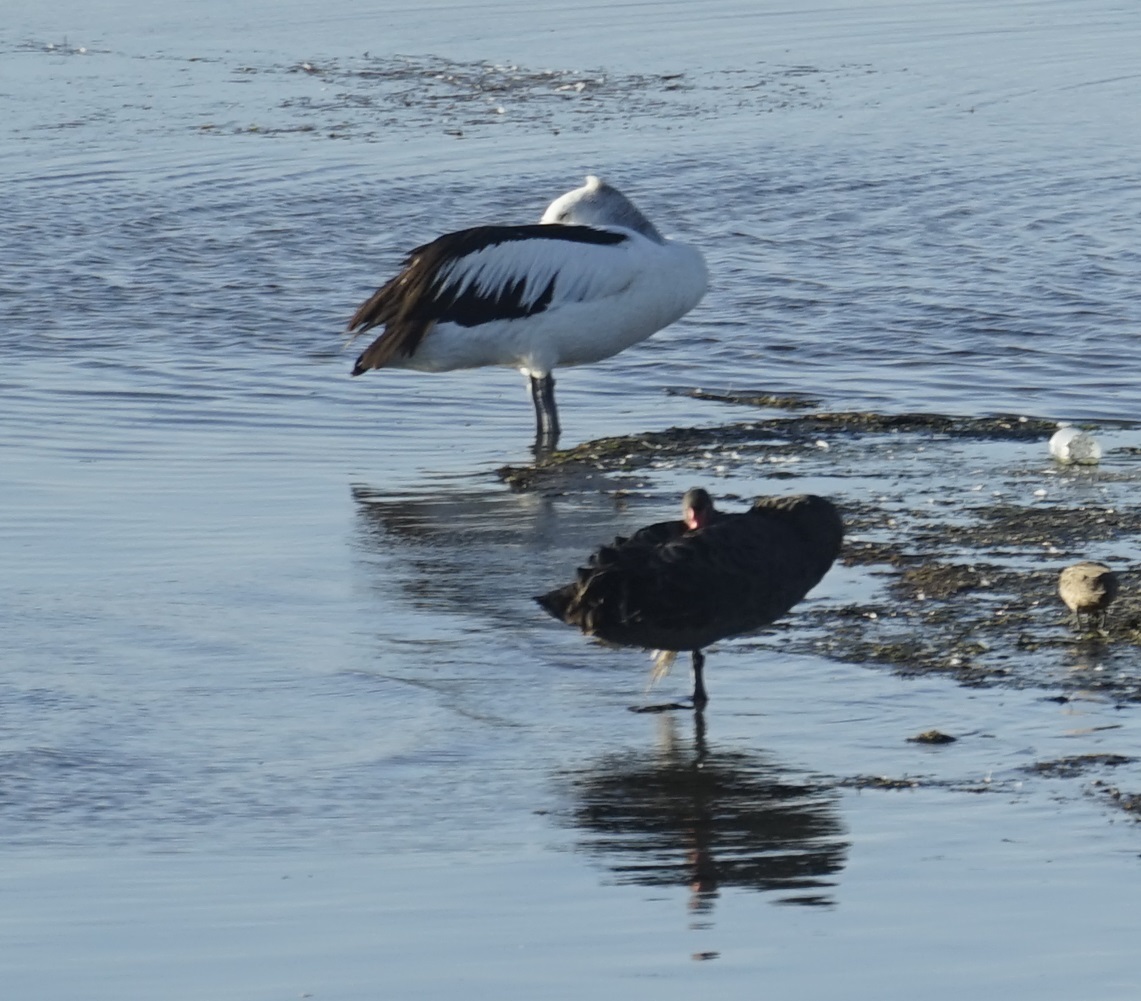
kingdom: Animalia
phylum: Chordata
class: Aves
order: Anseriformes
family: Anatidae
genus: Cygnus
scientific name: Cygnus atratus
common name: Black swan
